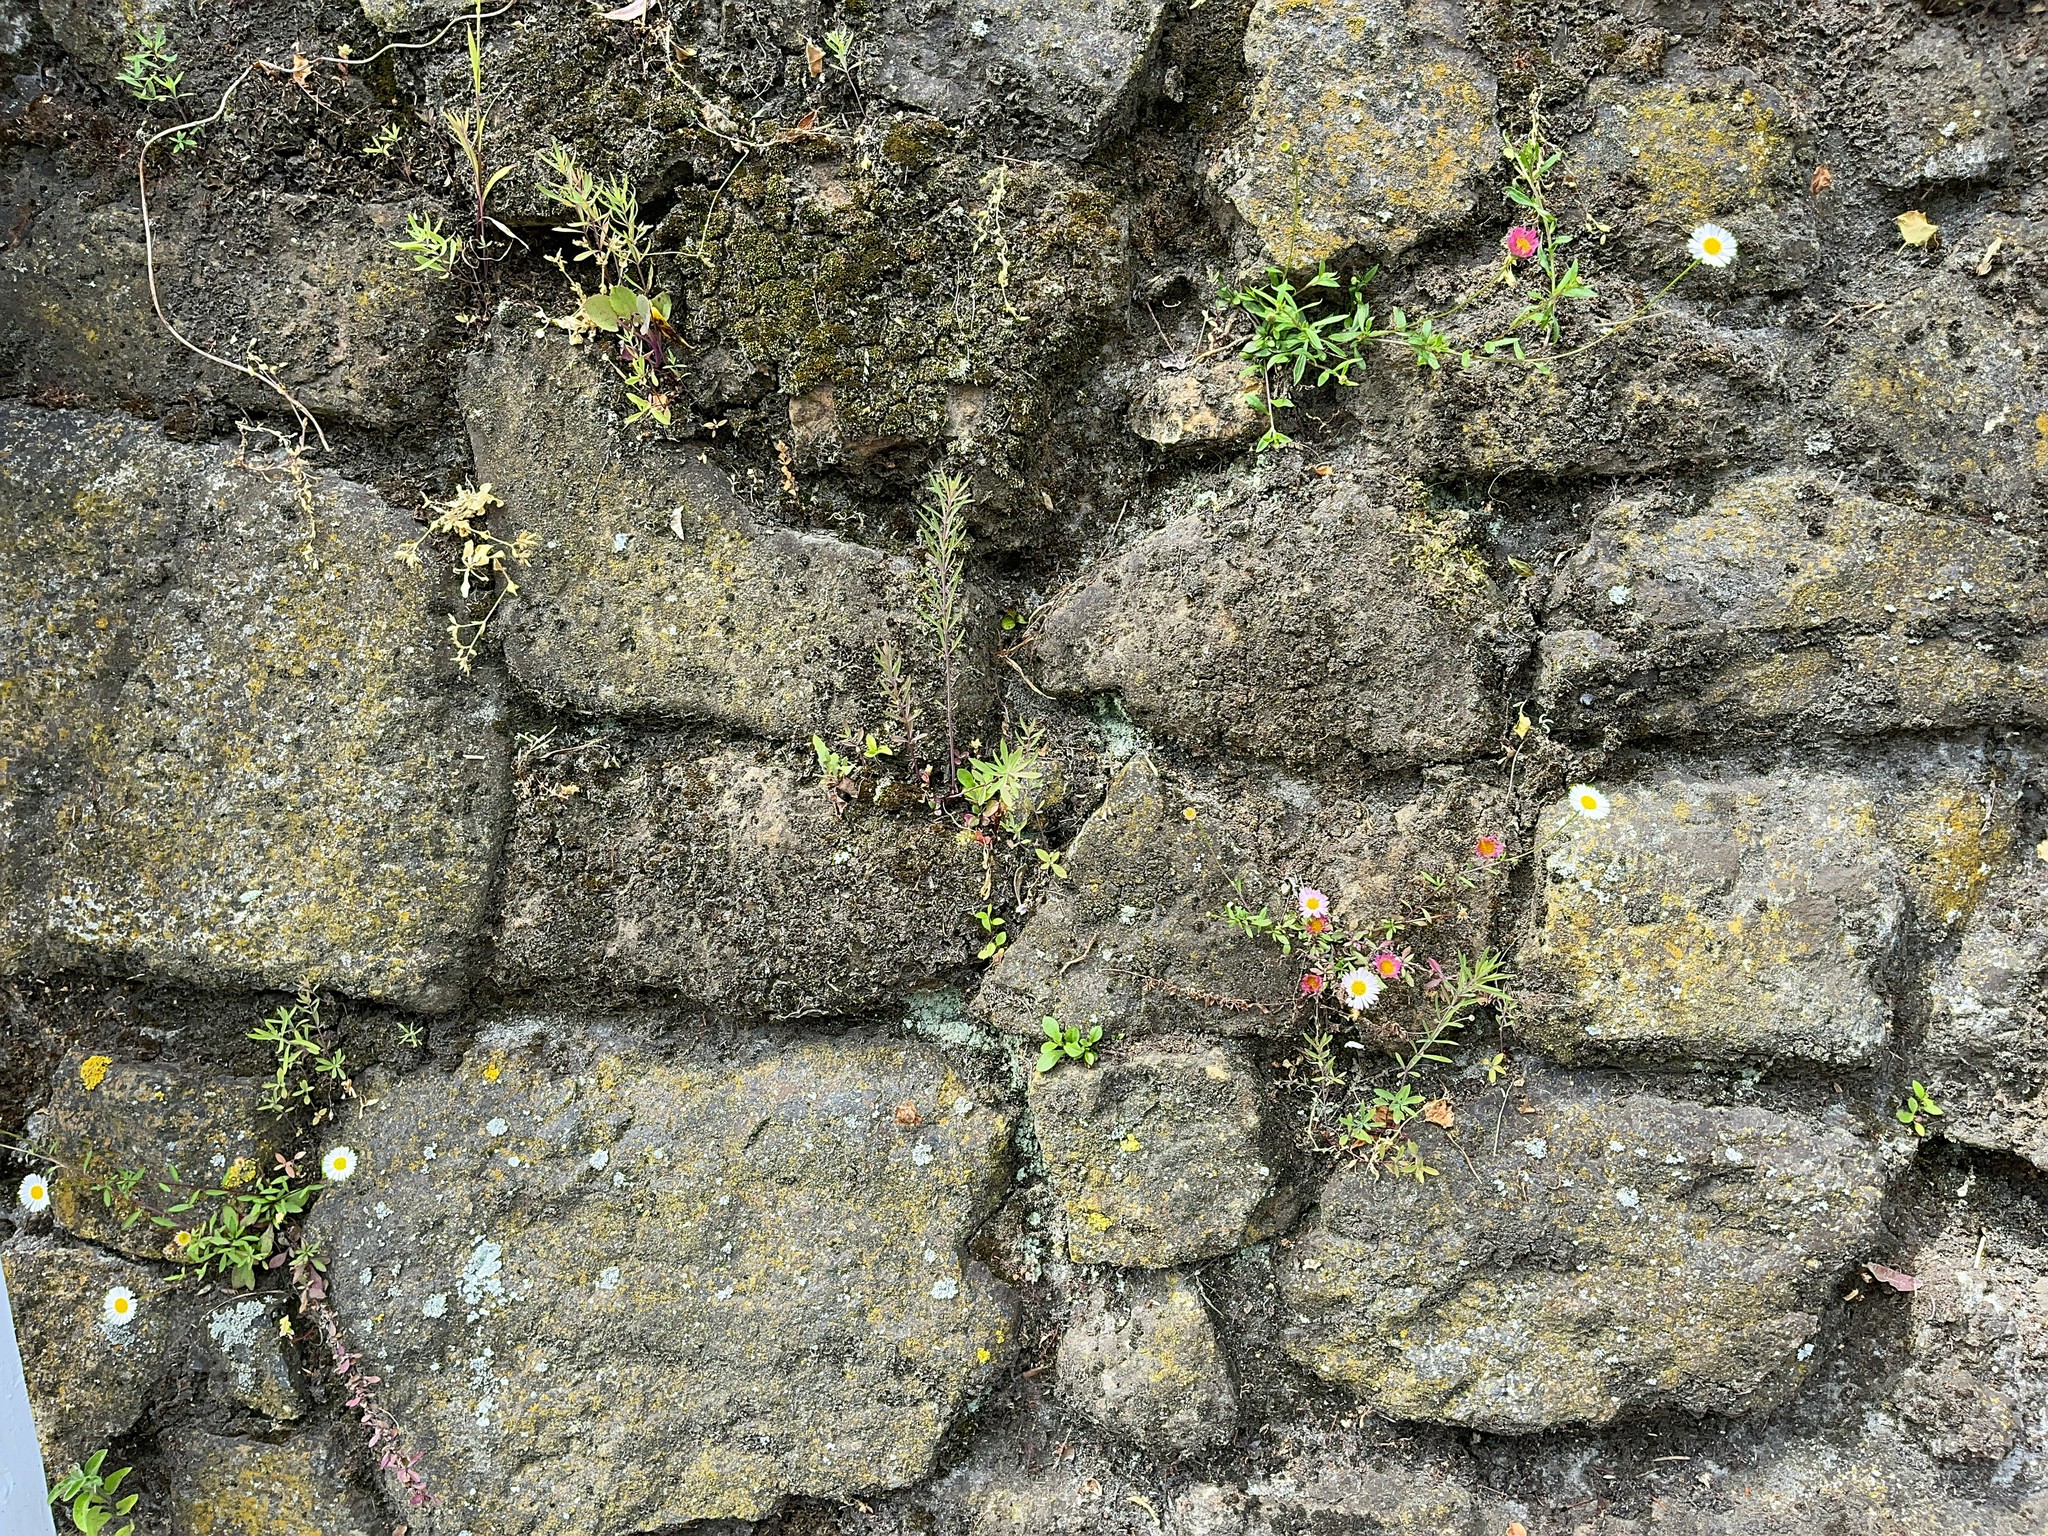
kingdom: Plantae
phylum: Tracheophyta
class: Magnoliopsida
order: Asterales
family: Asteraceae
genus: Erigeron
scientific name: Erigeron karvinskianus
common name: Mexican fleabane
